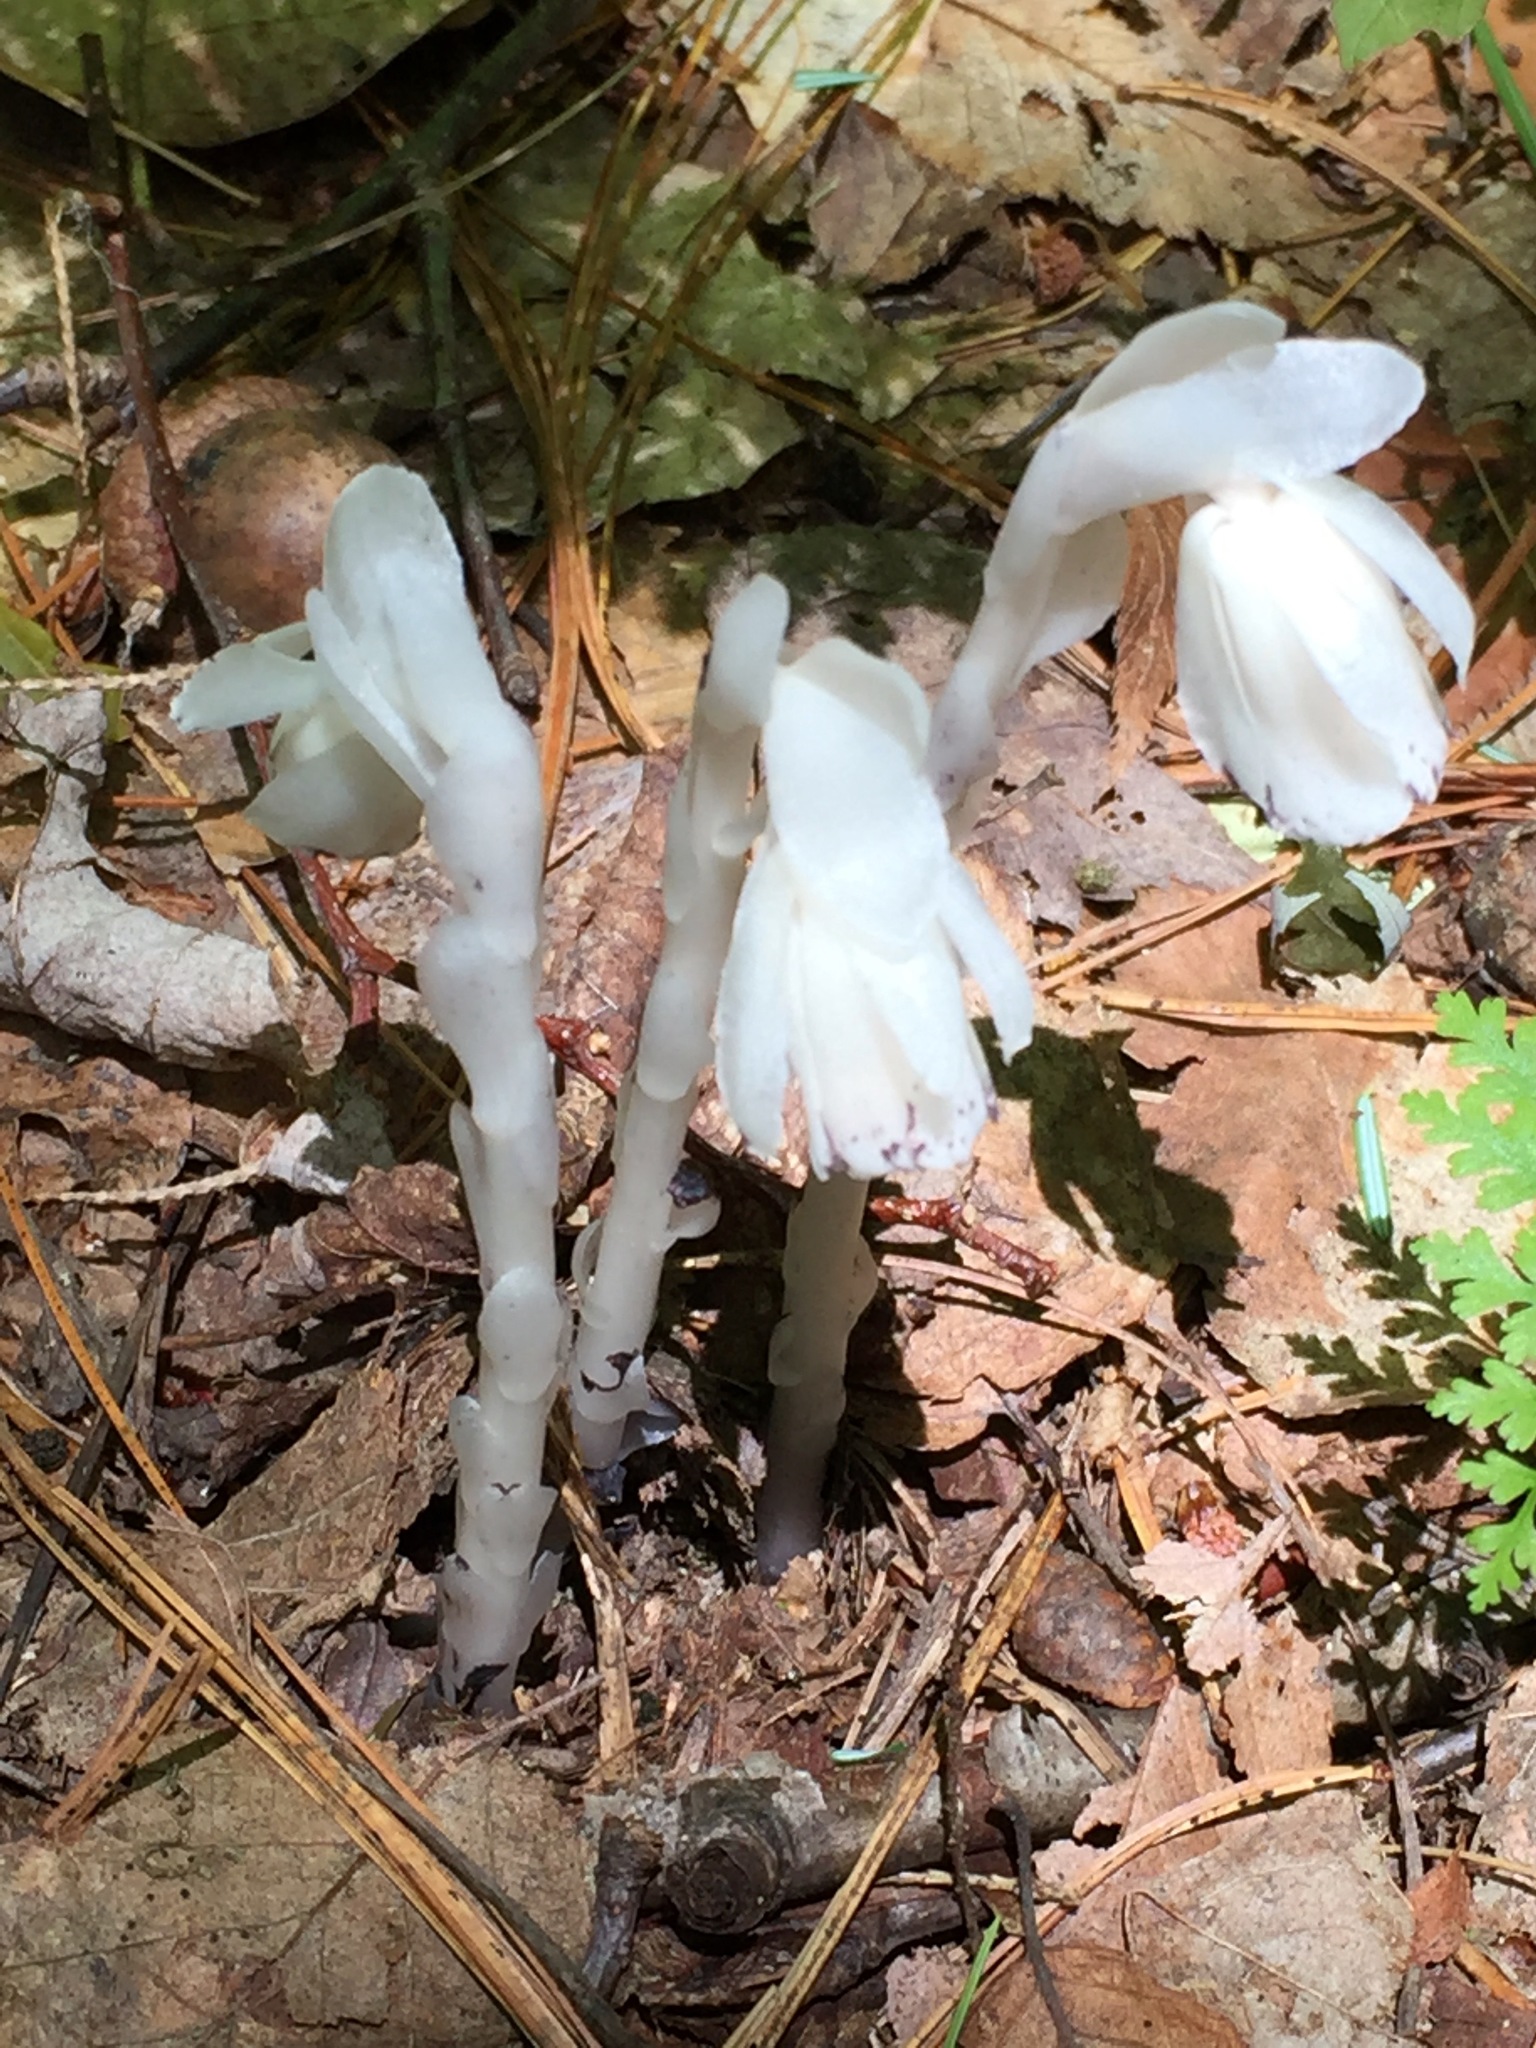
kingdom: Plantae
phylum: Tracheophyta
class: Magnoliopsida
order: Ericales
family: Ericaceae
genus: Monotropa
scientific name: Monotropa uniflora
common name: Convulsion root
